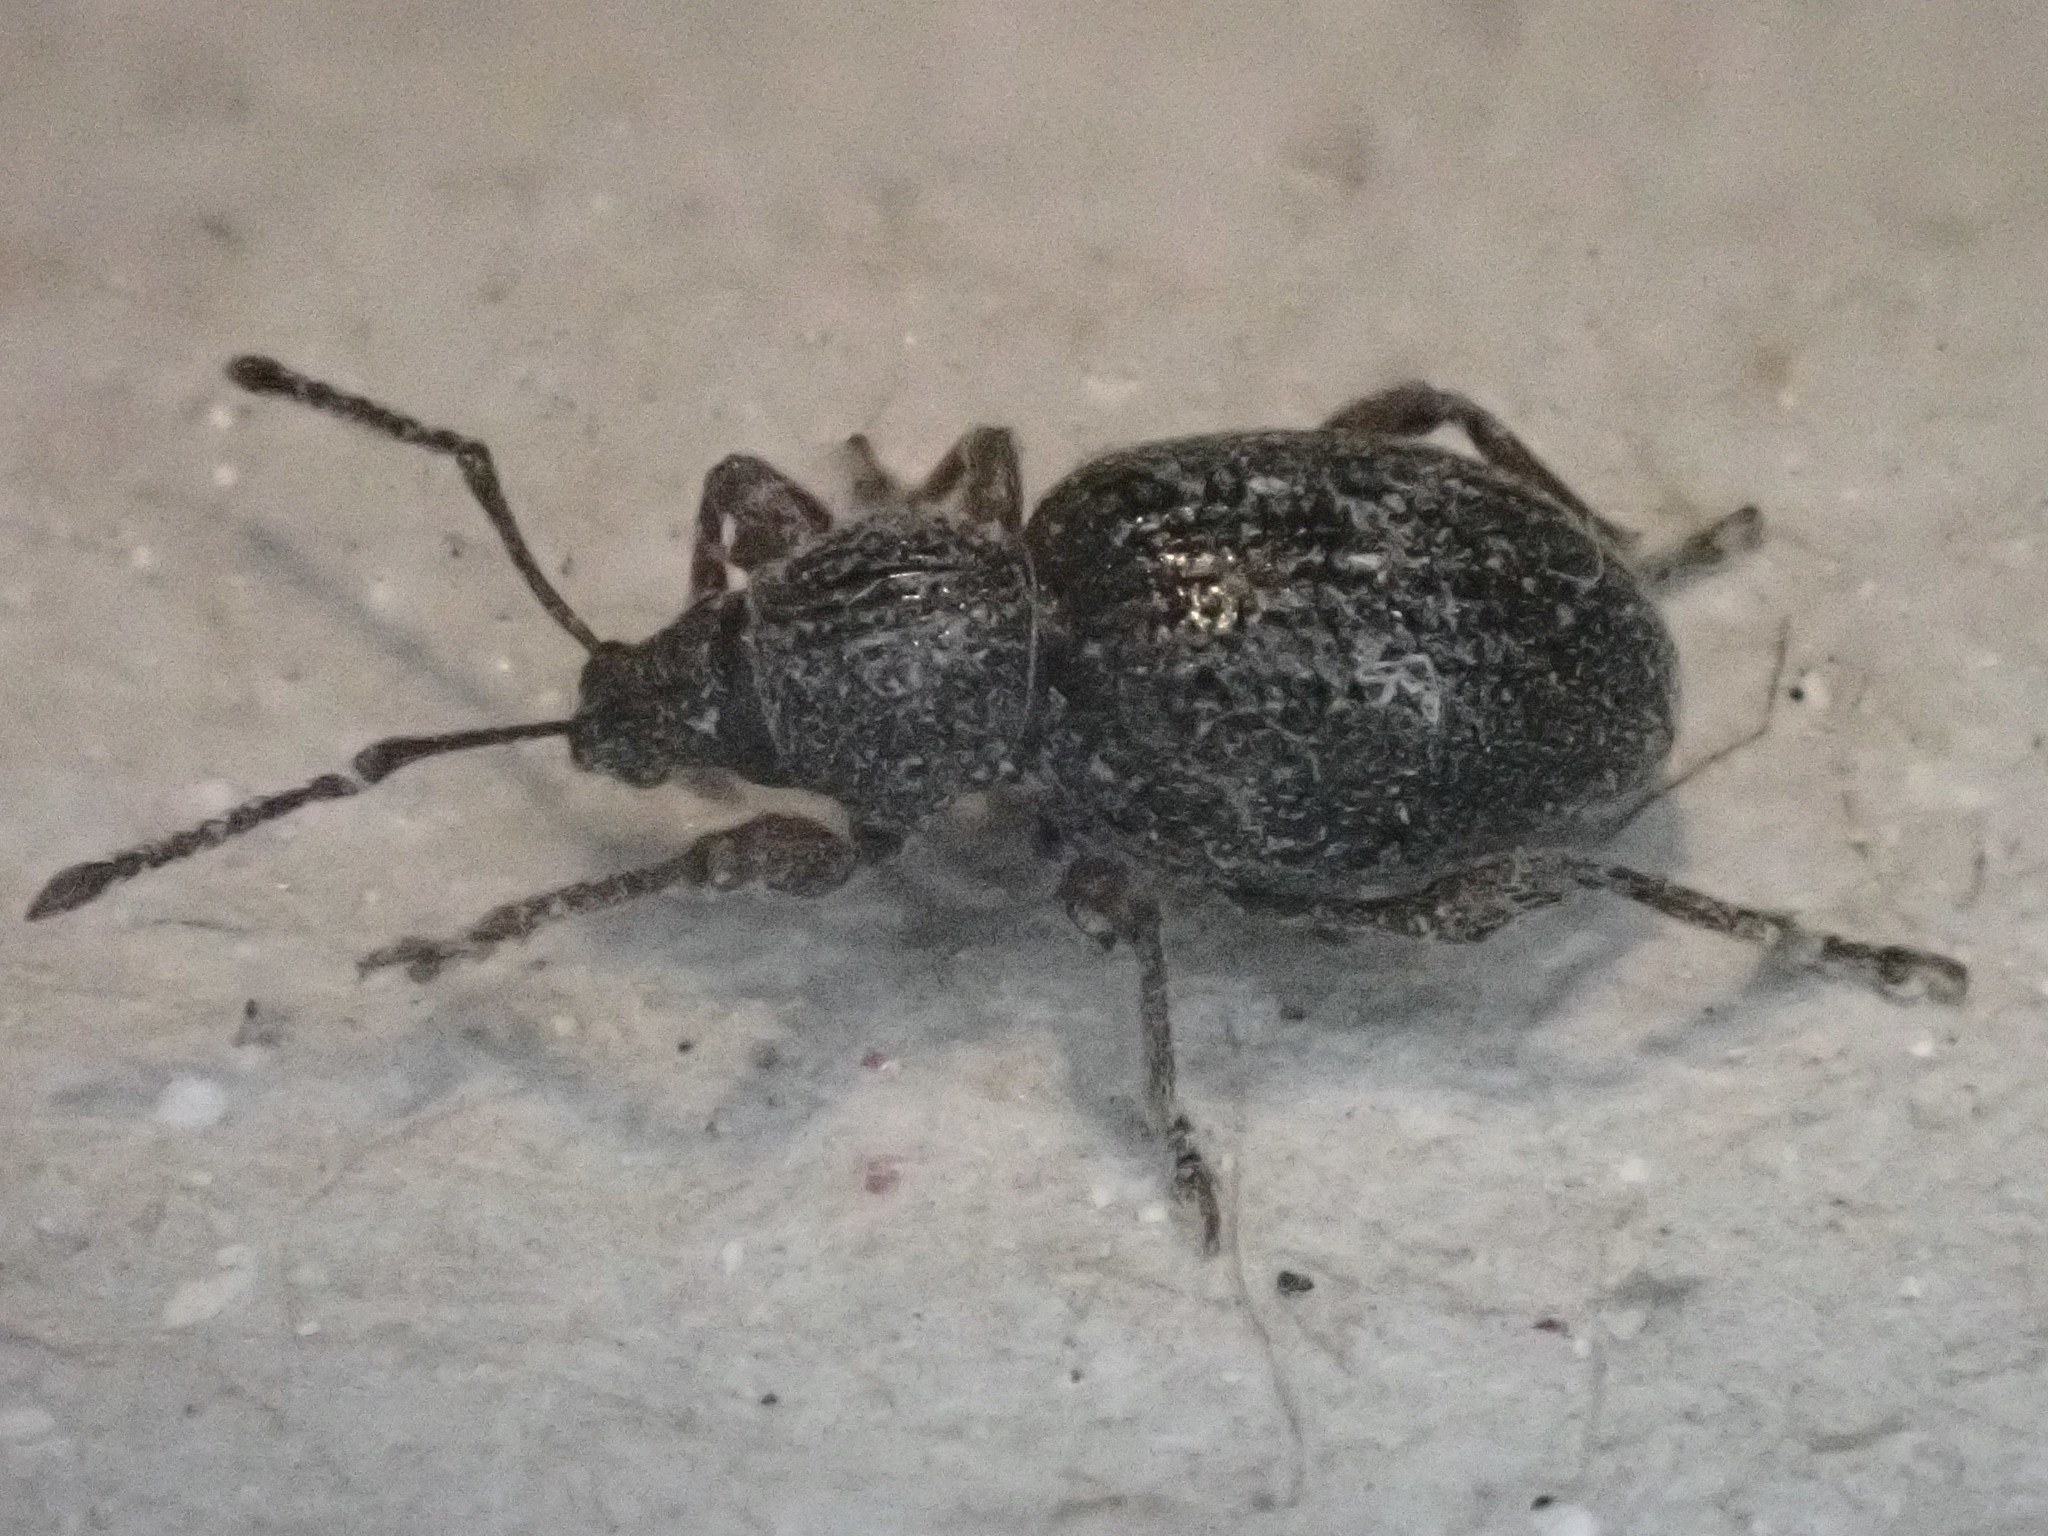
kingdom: Animalia
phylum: Arthropoda
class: Insecta
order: Coleoptera
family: Curculionidae
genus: Otiorhynchus
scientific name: Otiorhynchus ovatus
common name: Strawberry root weevil
